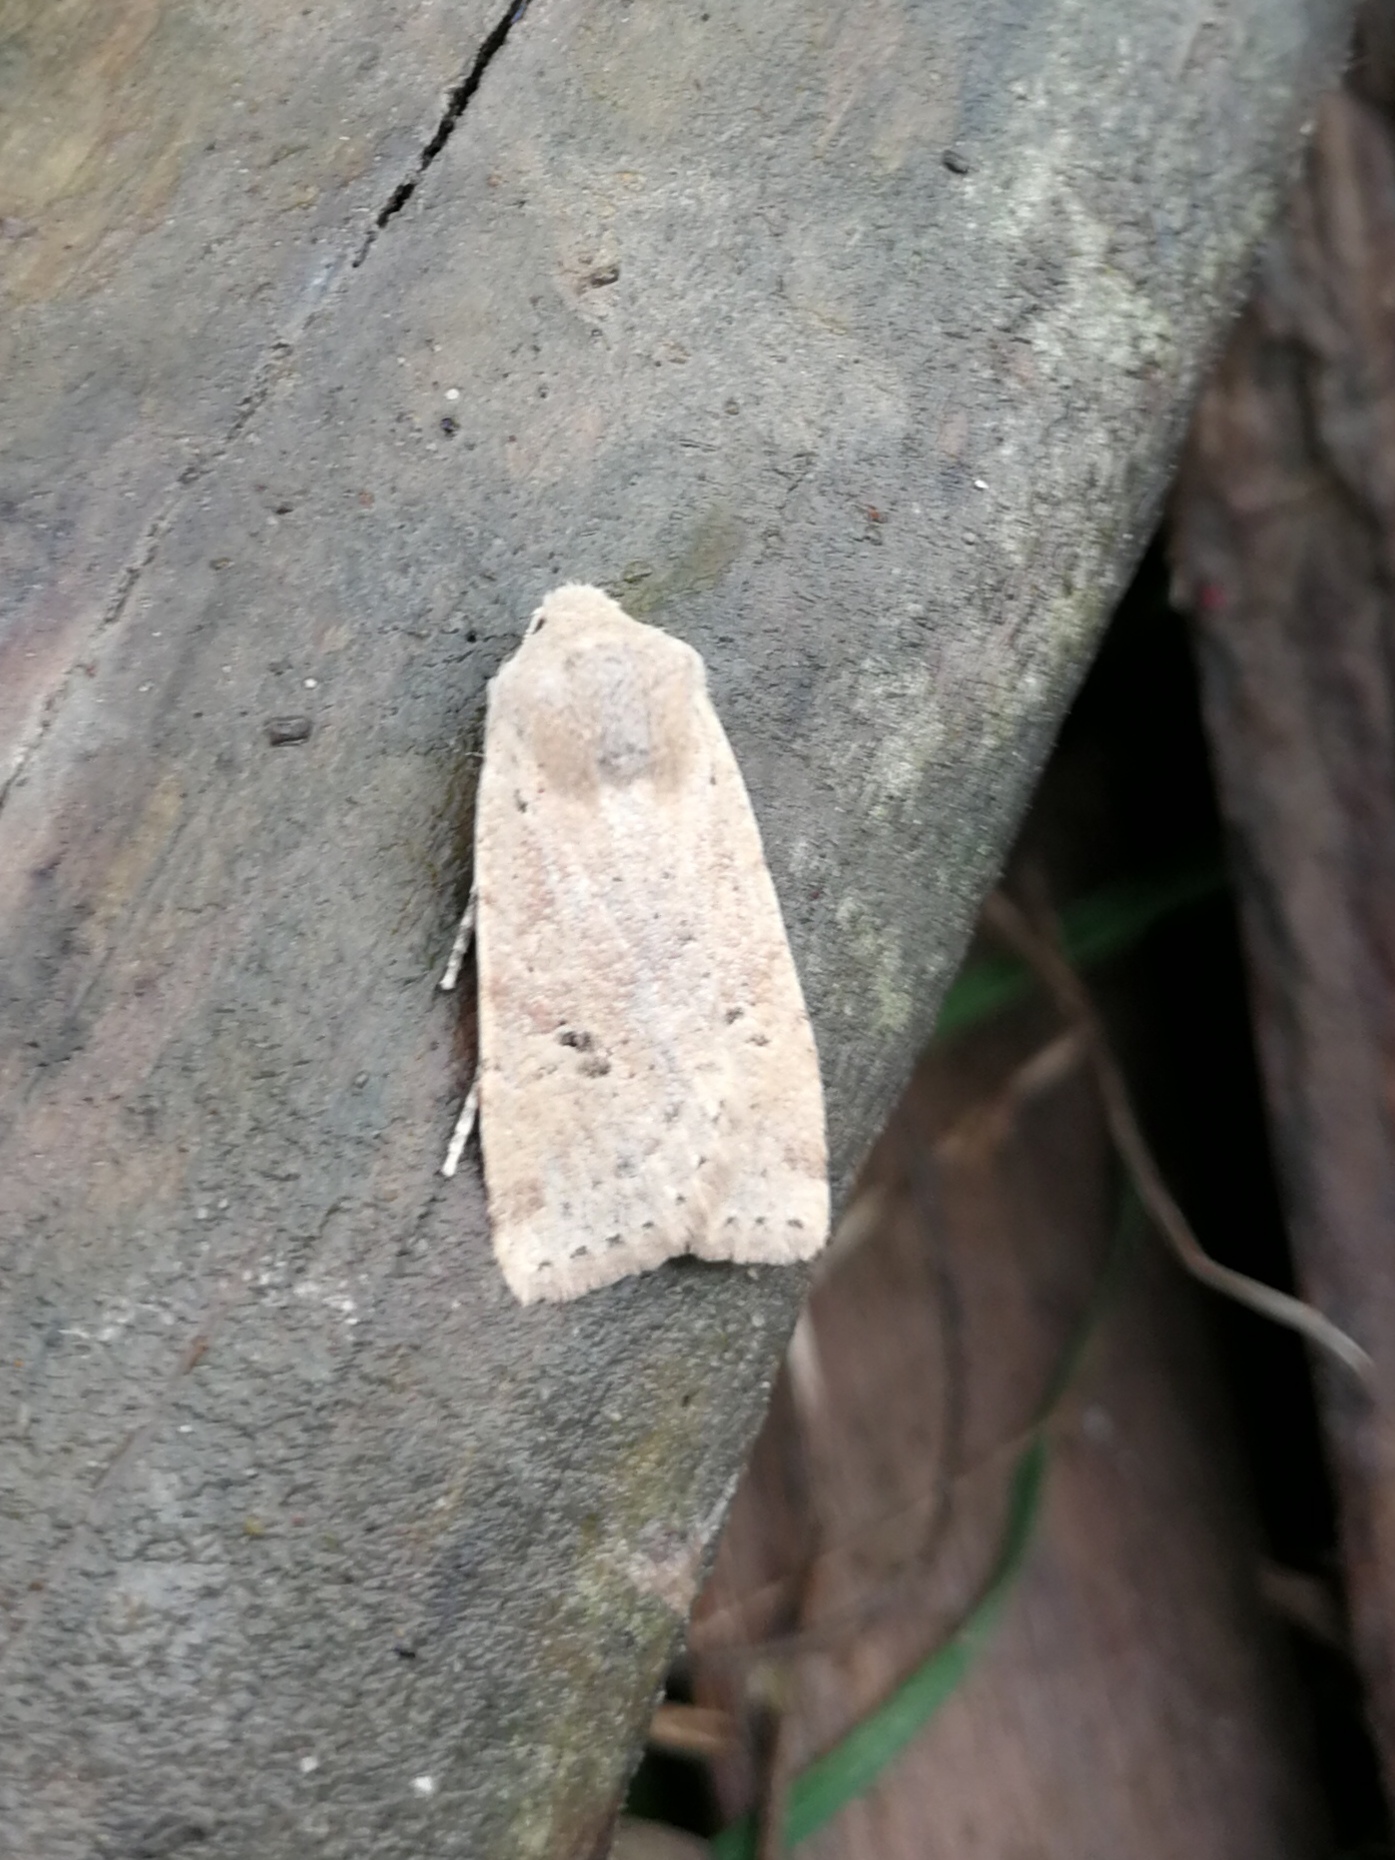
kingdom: Animalia
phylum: Arthropoda
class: Insecta
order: Lepidoptera
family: Noctuidae
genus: Conistra
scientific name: Conistra daubei
